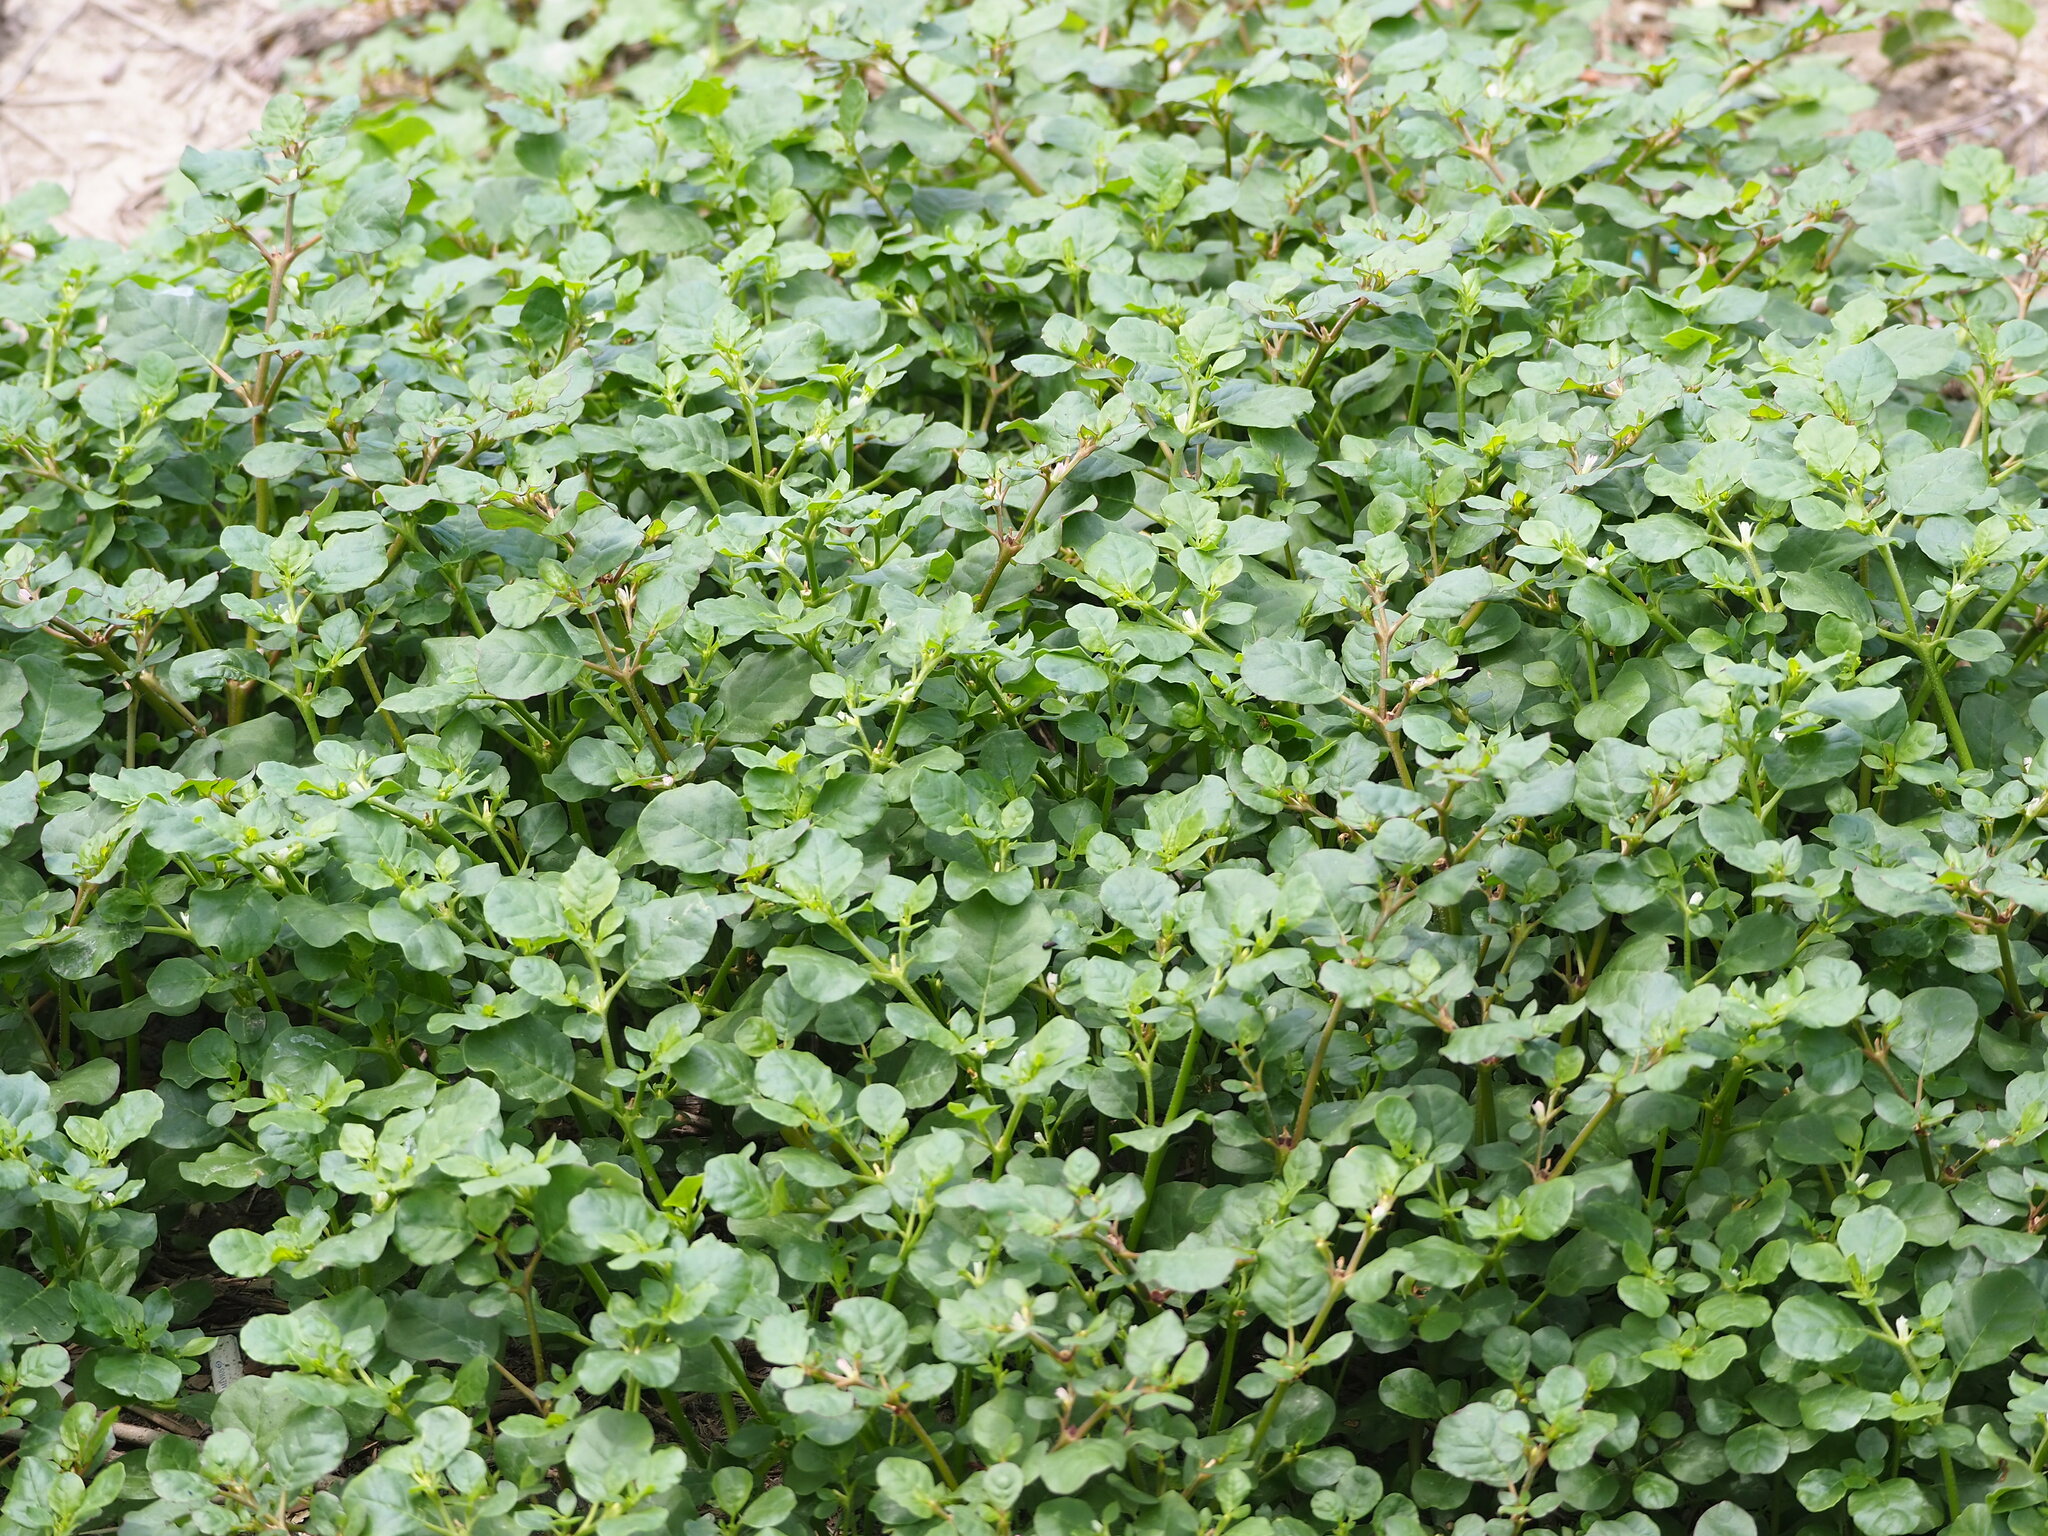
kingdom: Plantae
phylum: Tracheophyta
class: Magnoliopsida
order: Caryophyllales
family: Aizoaceae
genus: Trianthema
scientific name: Trianthema portulacastrum
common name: Desert horsepurslane
